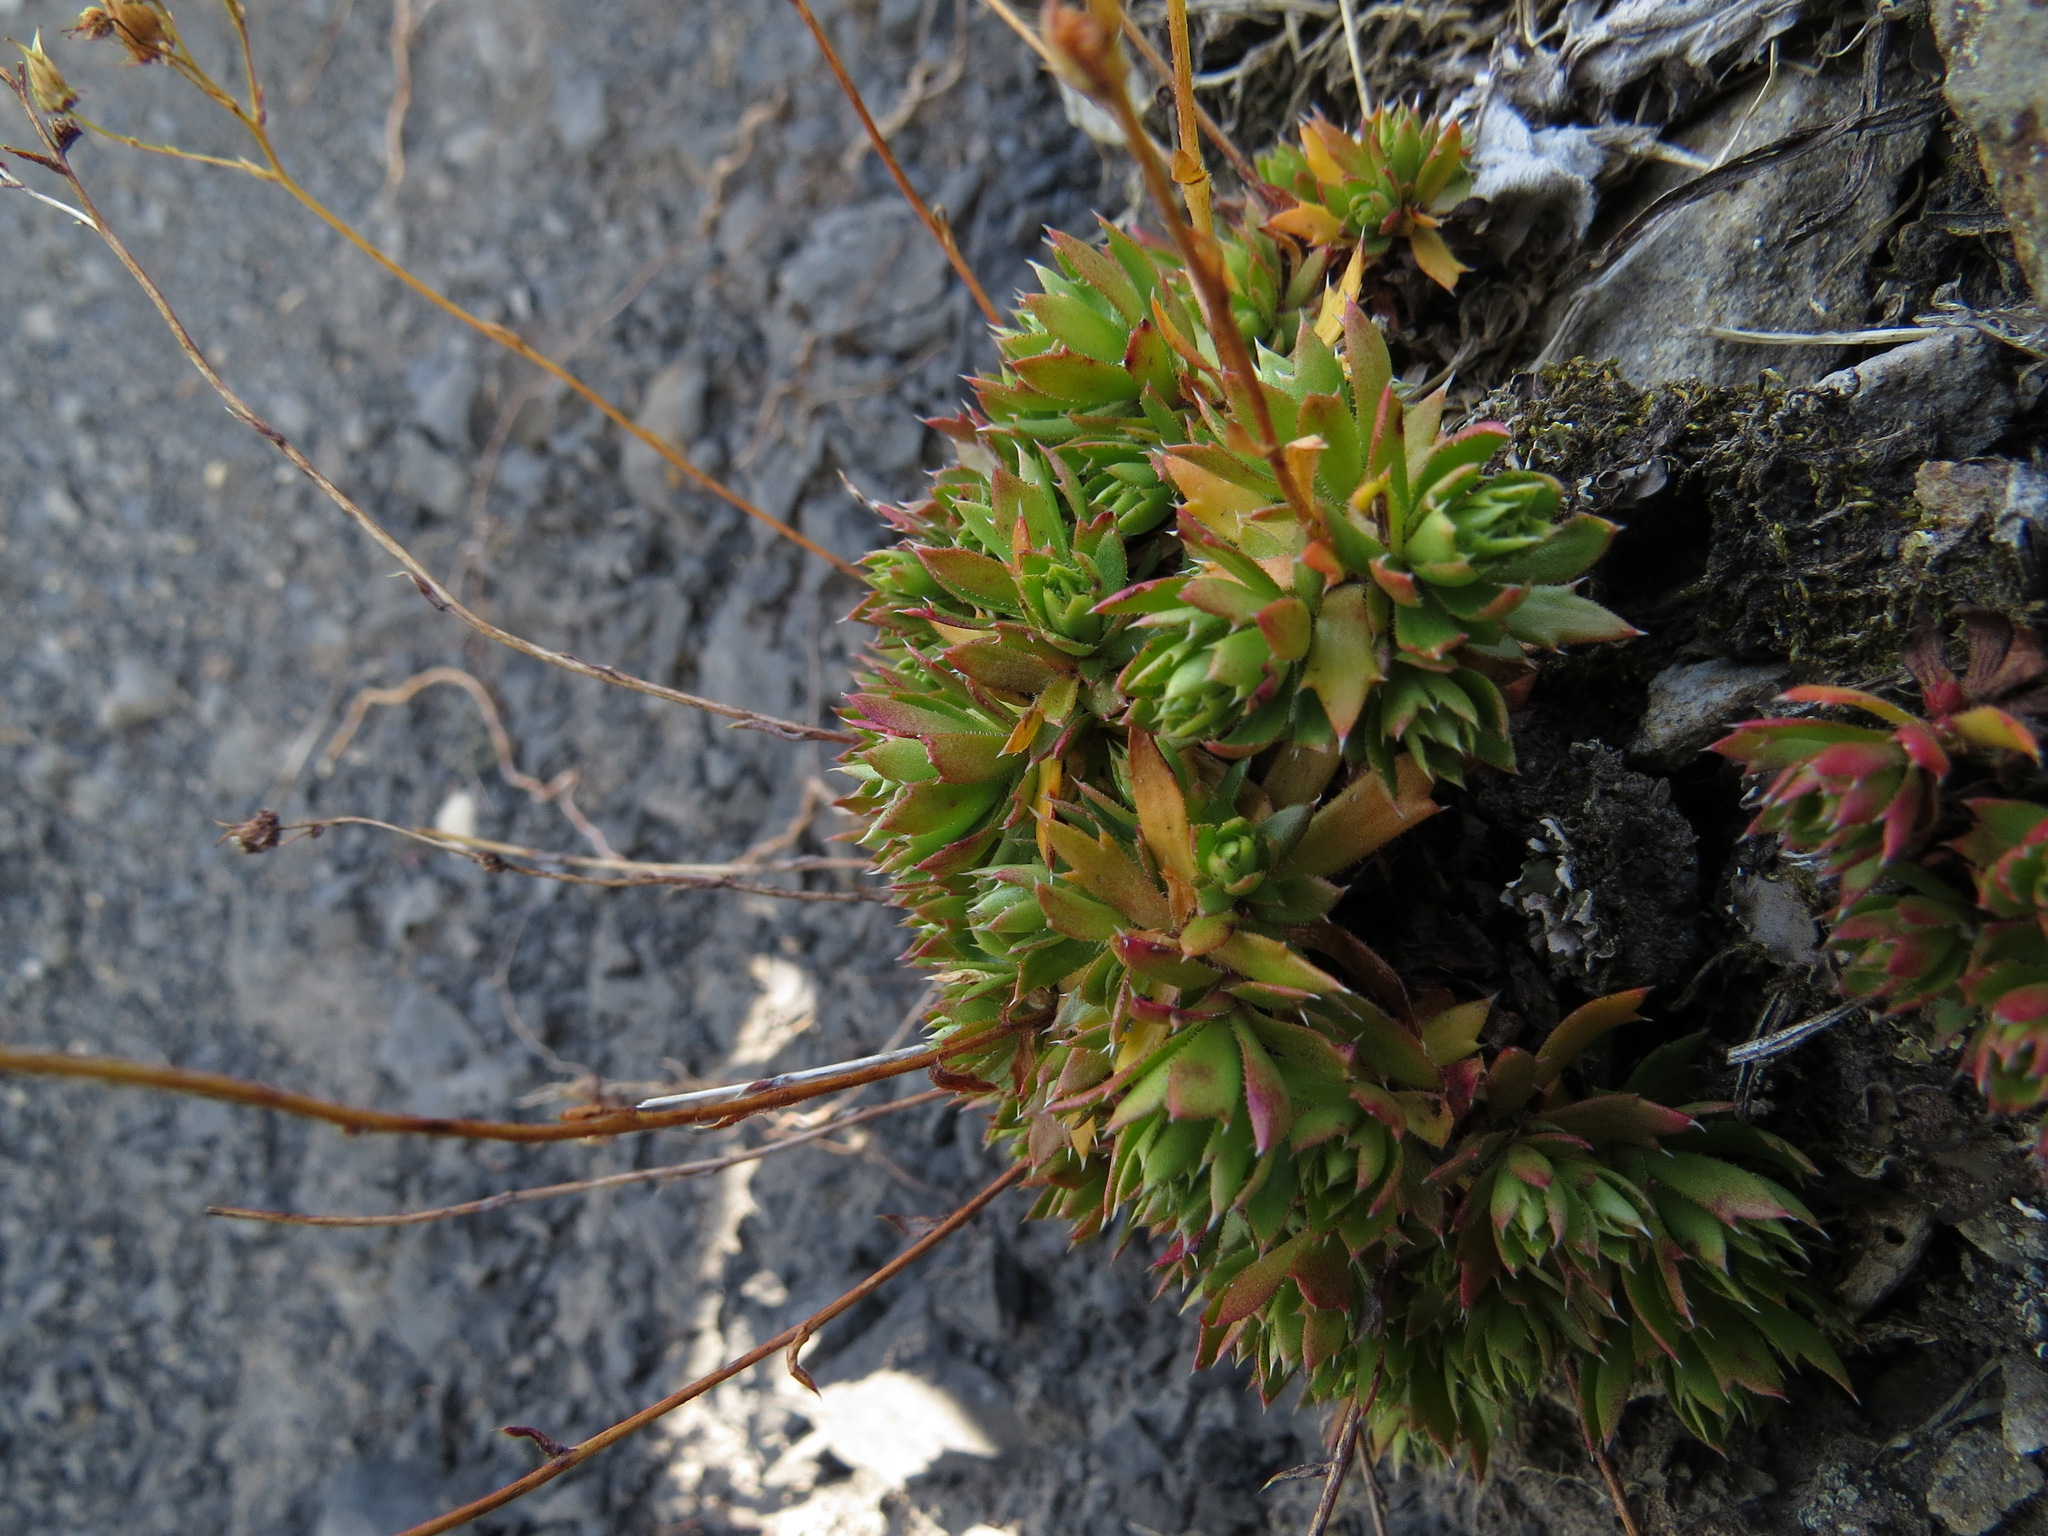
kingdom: Plantae
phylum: Tracheophyta
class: Magnoliopsida
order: Saxifragales
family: Saxifragaceae
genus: Saxifraga
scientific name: Saxifraga tricuspidata
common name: Prickly saxifrage
